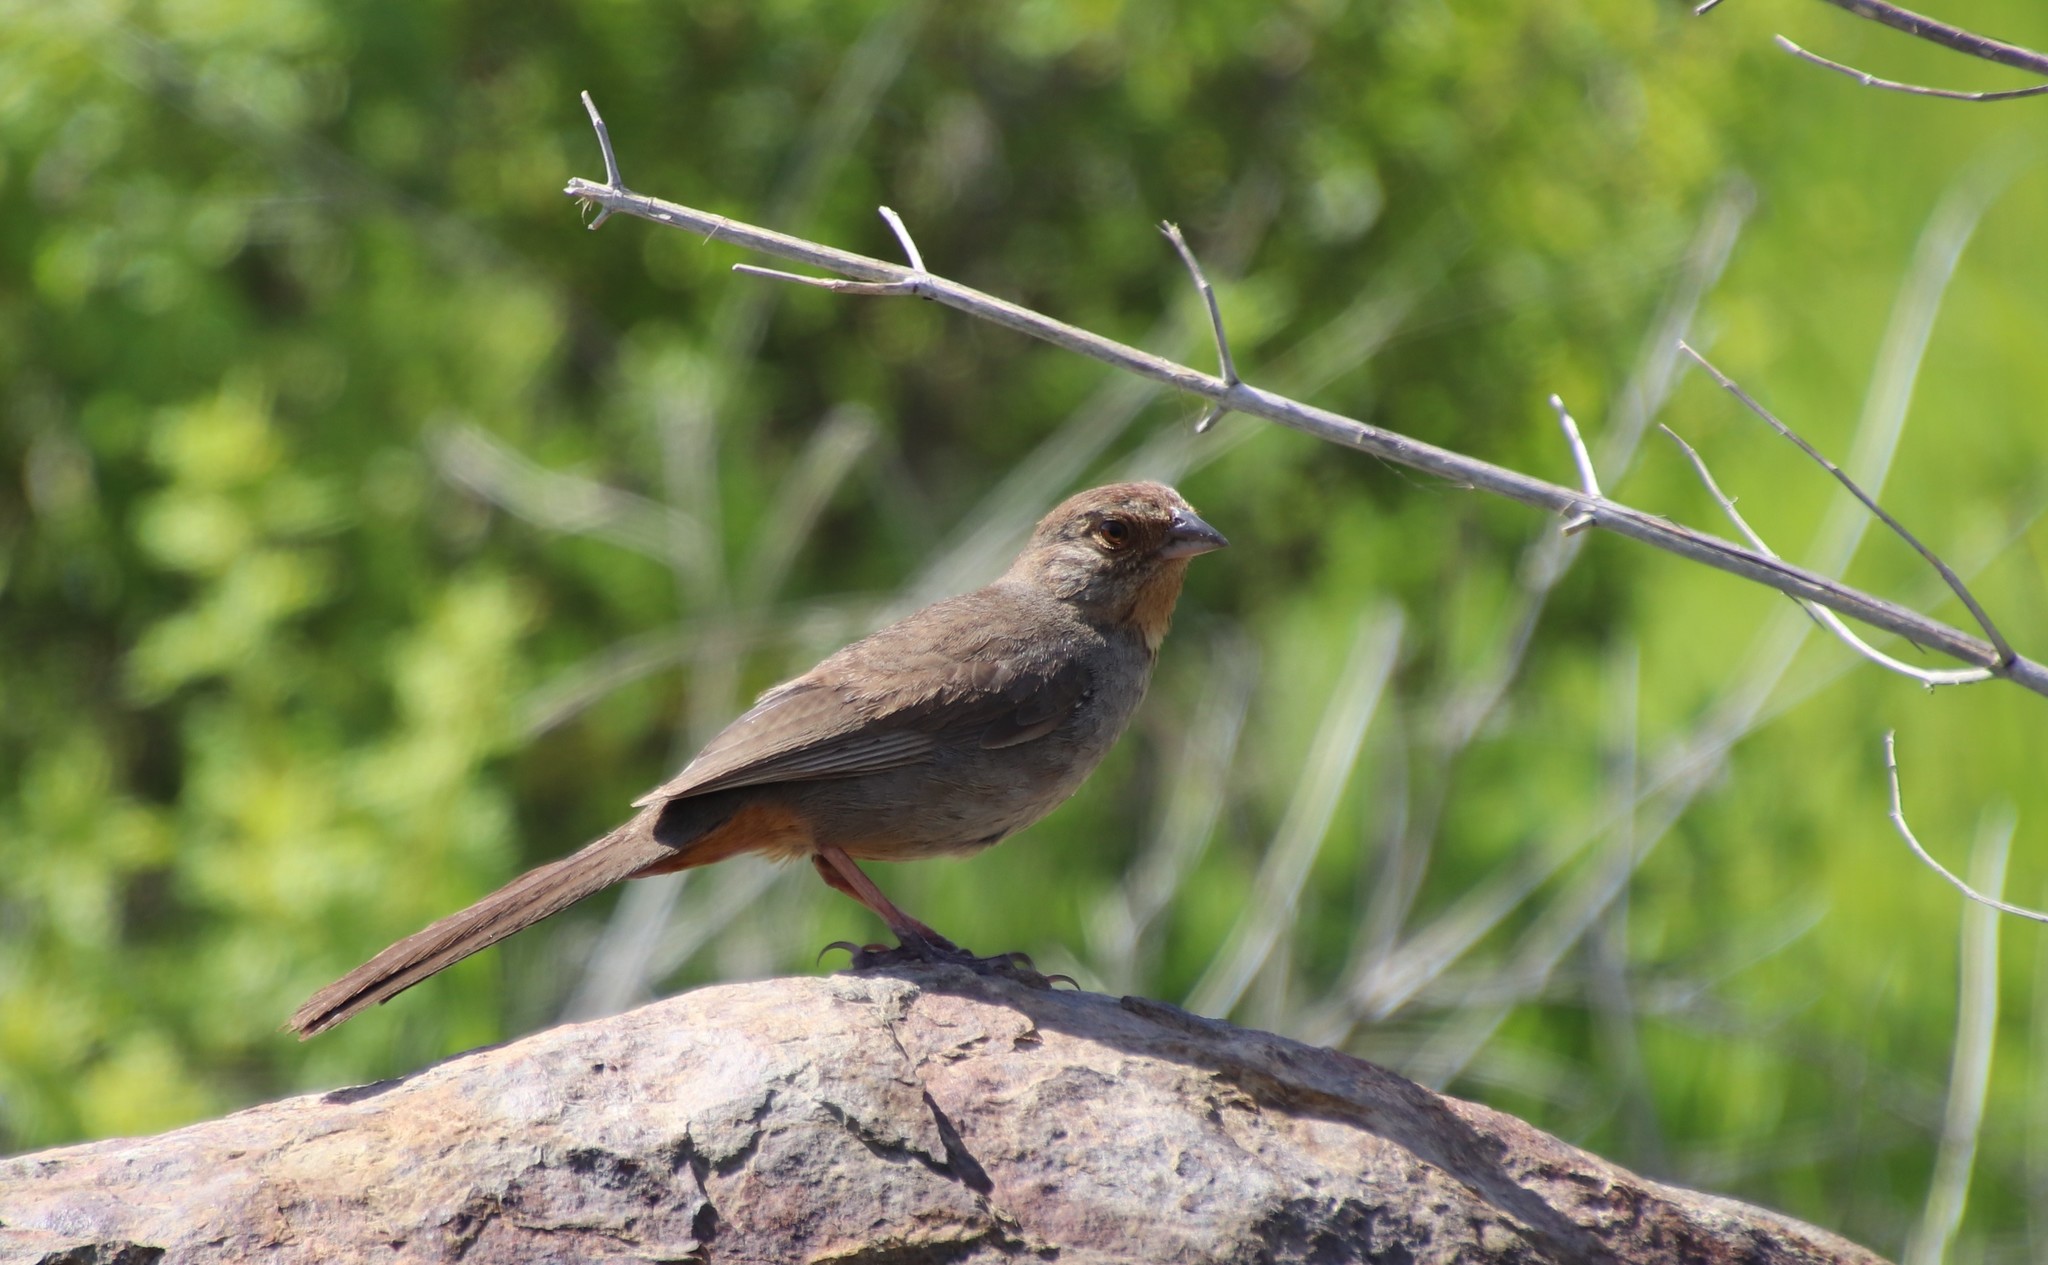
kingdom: Animalia
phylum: Chordata
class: Aves
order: Passeriformes
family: Passerellidae
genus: Melozone
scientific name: Melozone crissalis
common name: California towhee
